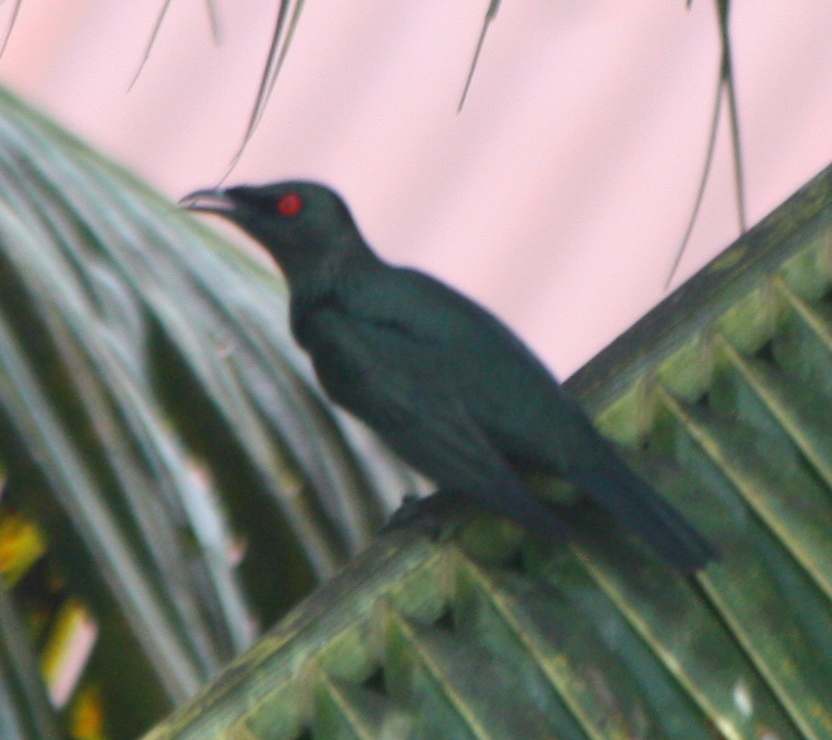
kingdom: Animalia
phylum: Chordata
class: Aves
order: Passeriformes
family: Sturnidae
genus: Aplonis
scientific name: Aplonis panayensis
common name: Asian glossy starling
